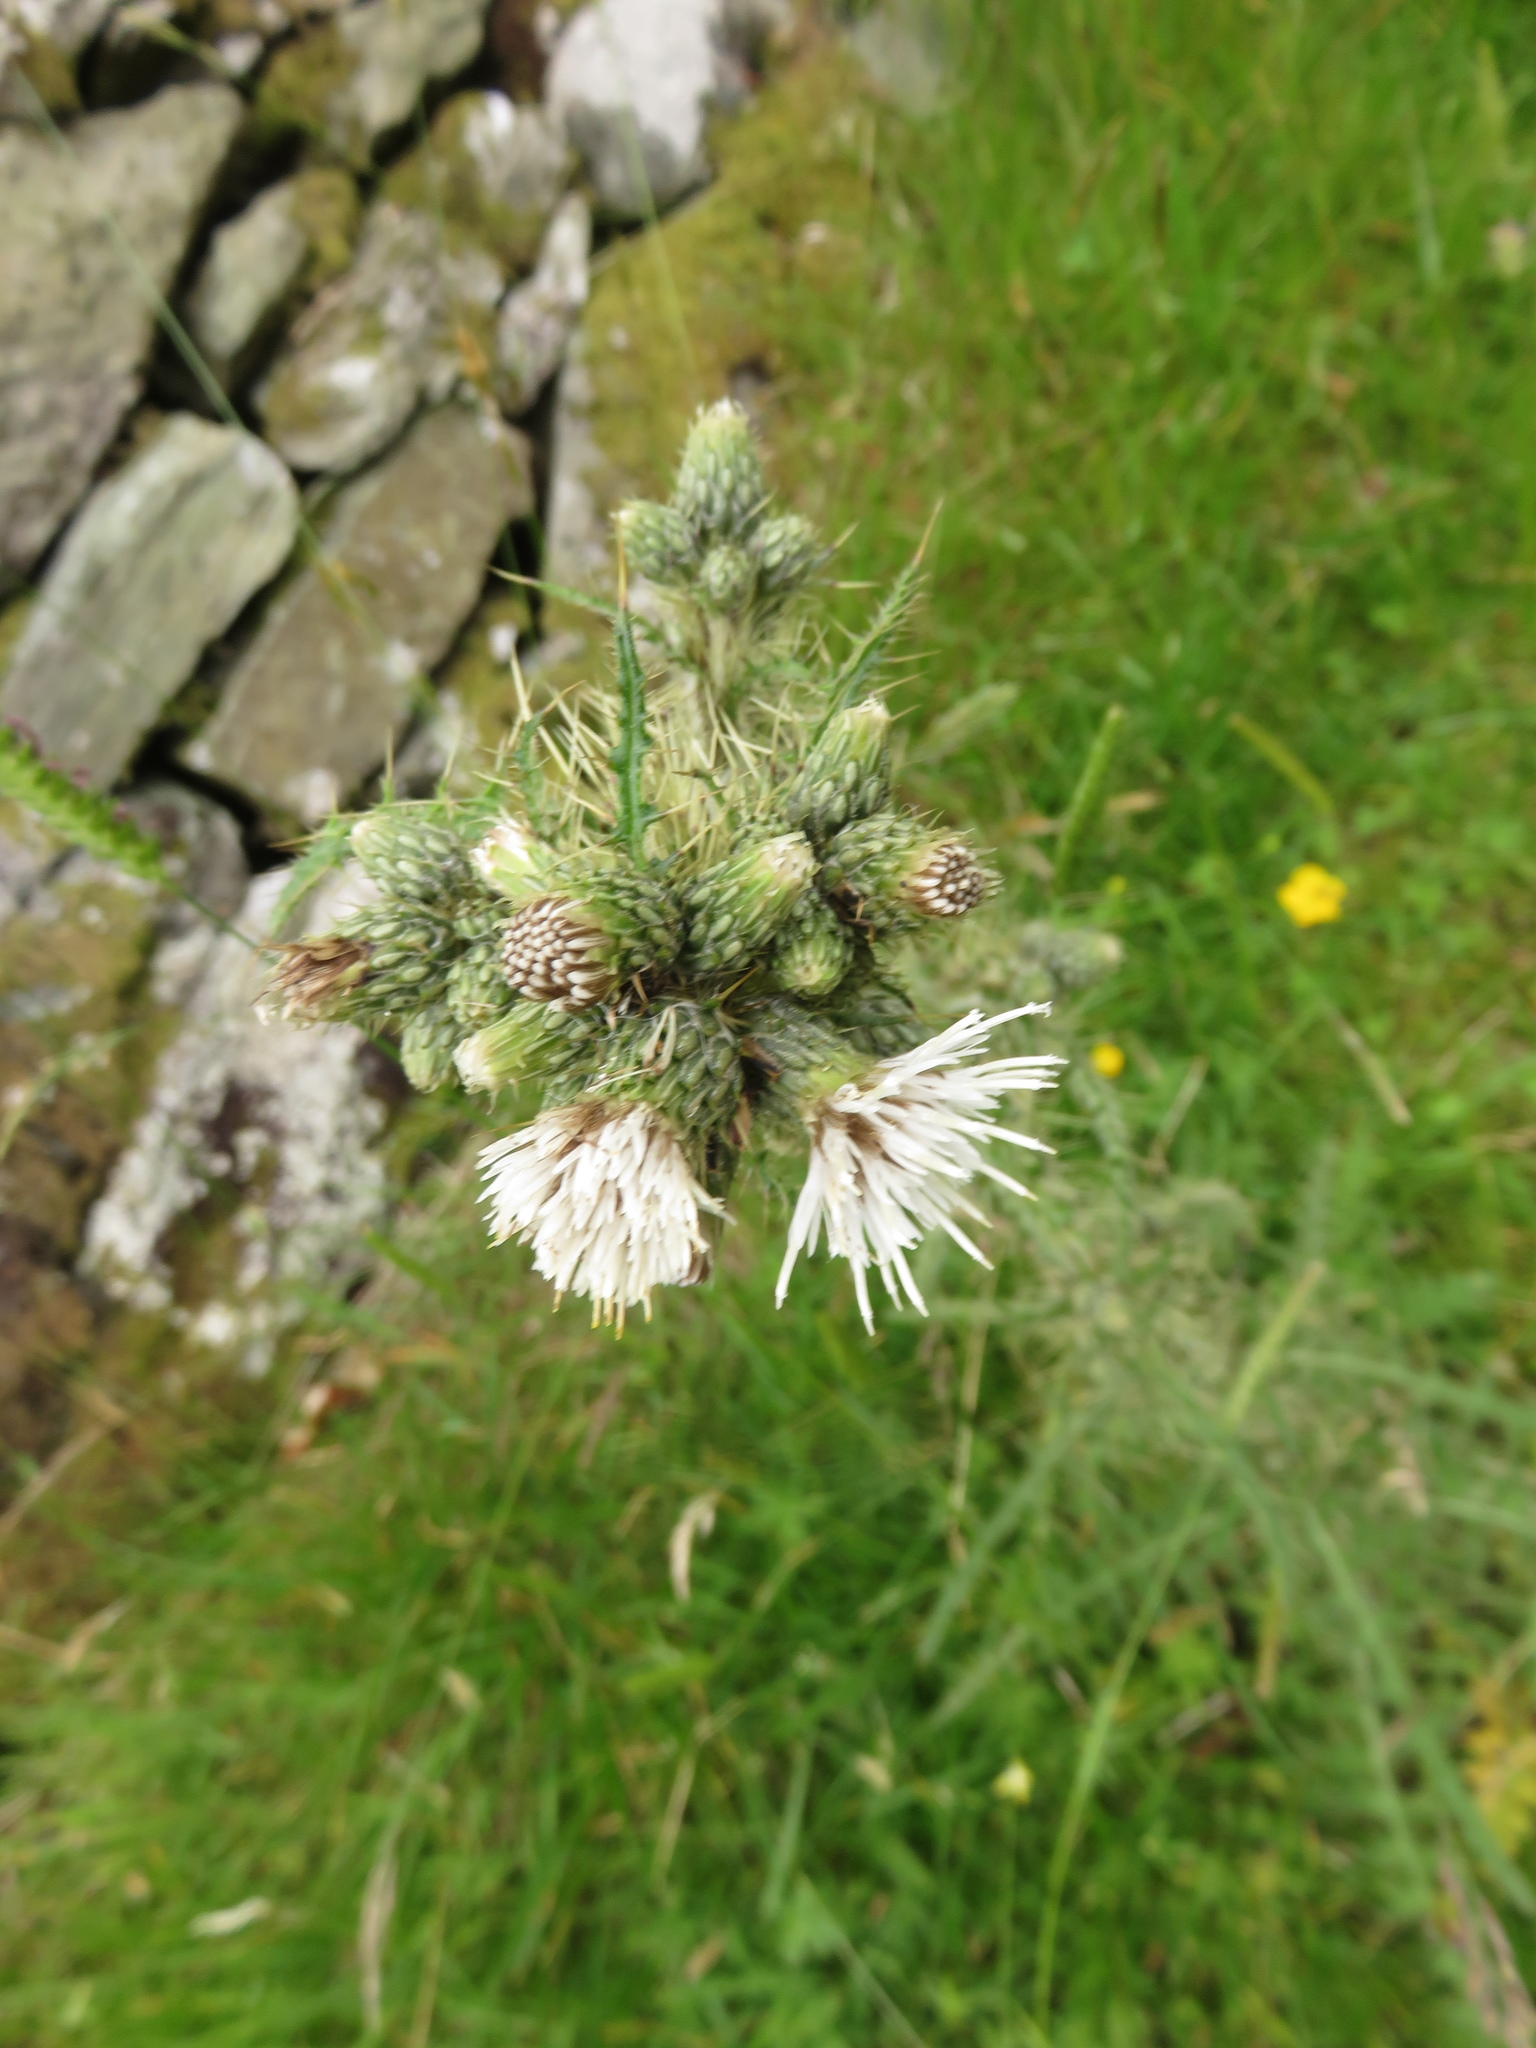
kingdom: Plantae
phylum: Tracheophyta
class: Magnoliopsida
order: Asterales
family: Asteraceae
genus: Cirsium
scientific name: Cirsium palustre
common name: Marsh thistle
